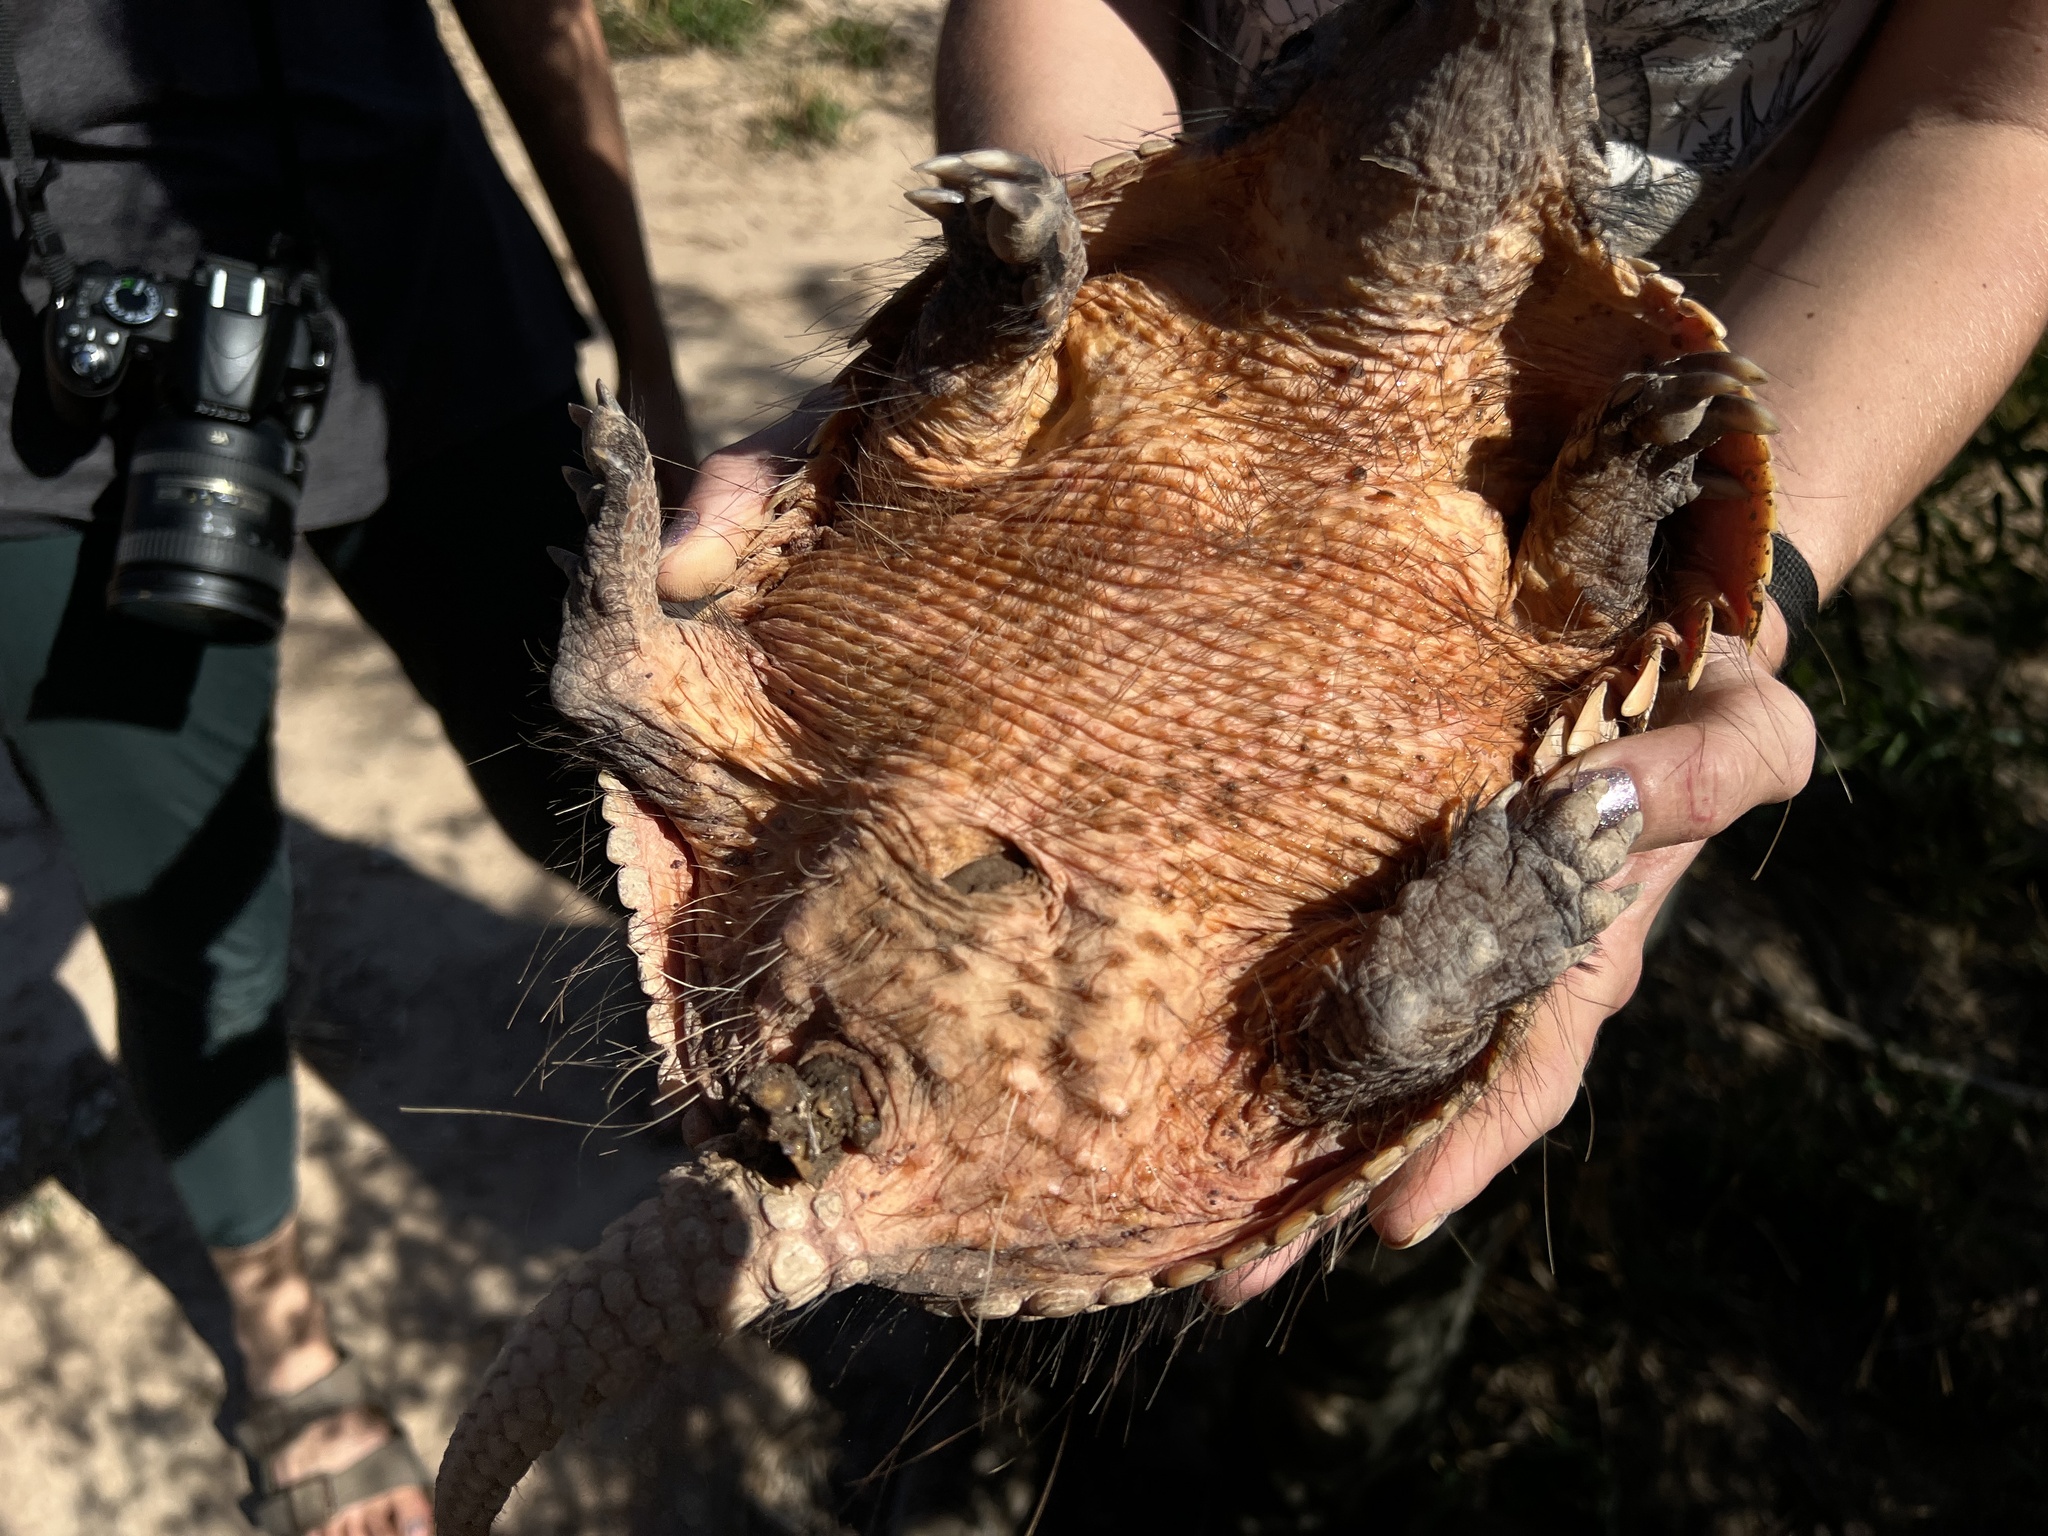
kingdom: Animalia
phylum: Chordata
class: Mammalia
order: Cingulata
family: Dasypodidae
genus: Chaetophractus
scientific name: Chaetophractus villosus
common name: Big hairy armadillo
